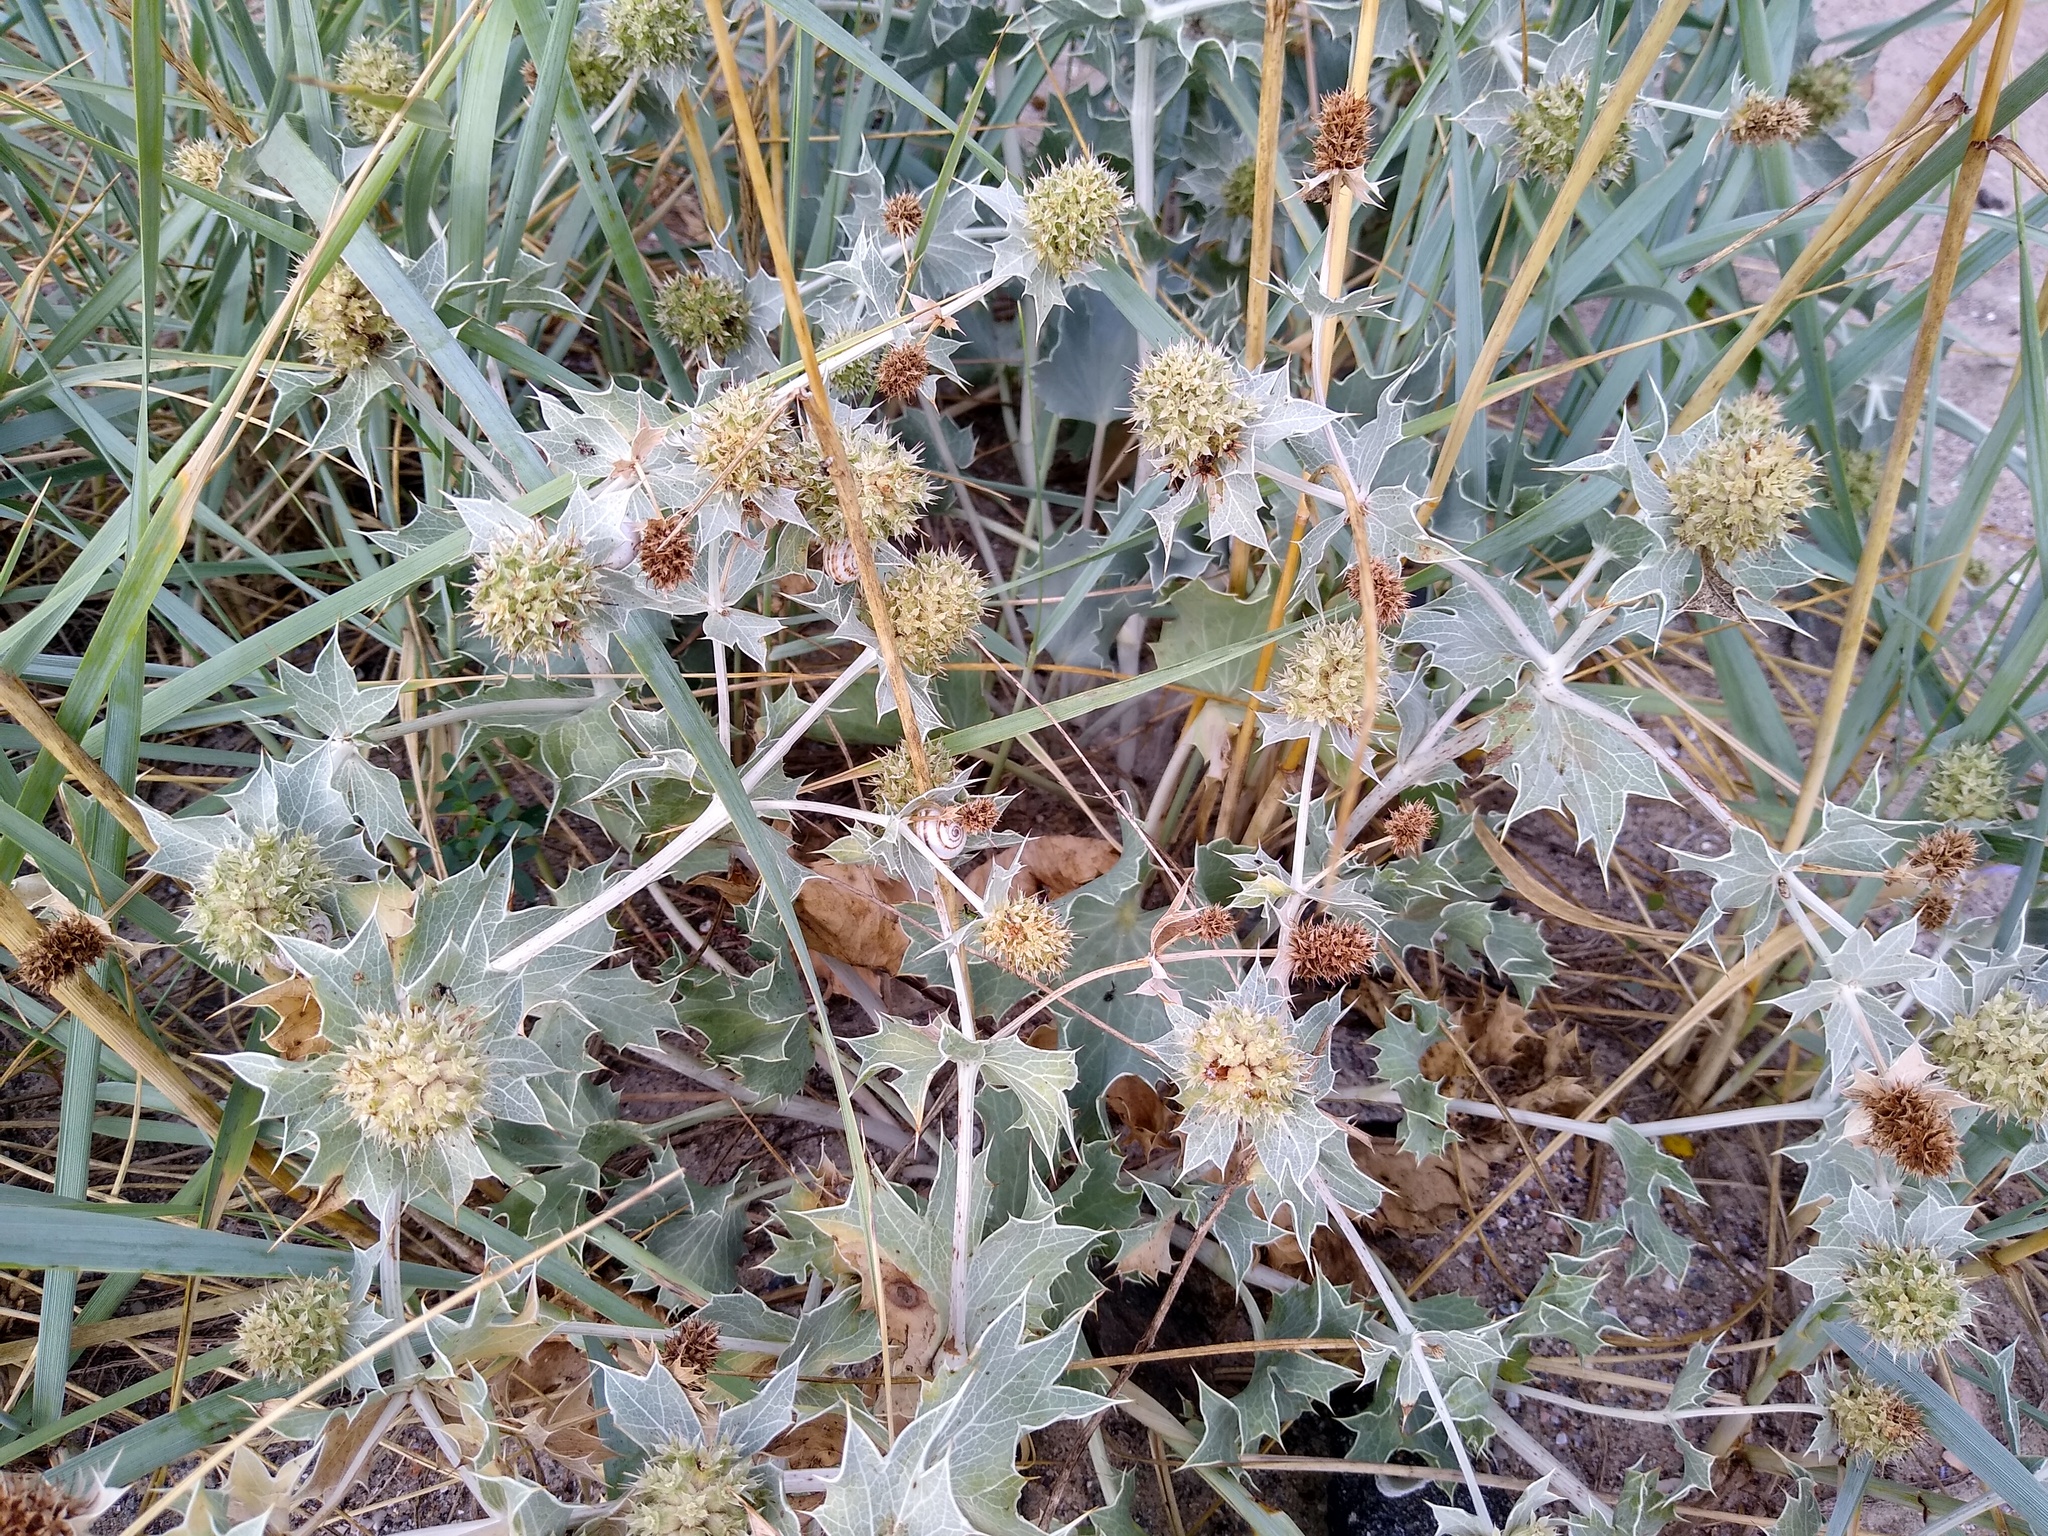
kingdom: Plantae
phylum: Tracheophyta
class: Magnoliopsida
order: Apiales
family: Apiaceae
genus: Eryngium
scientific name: Eryngium maritimum
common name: Sea-holly
